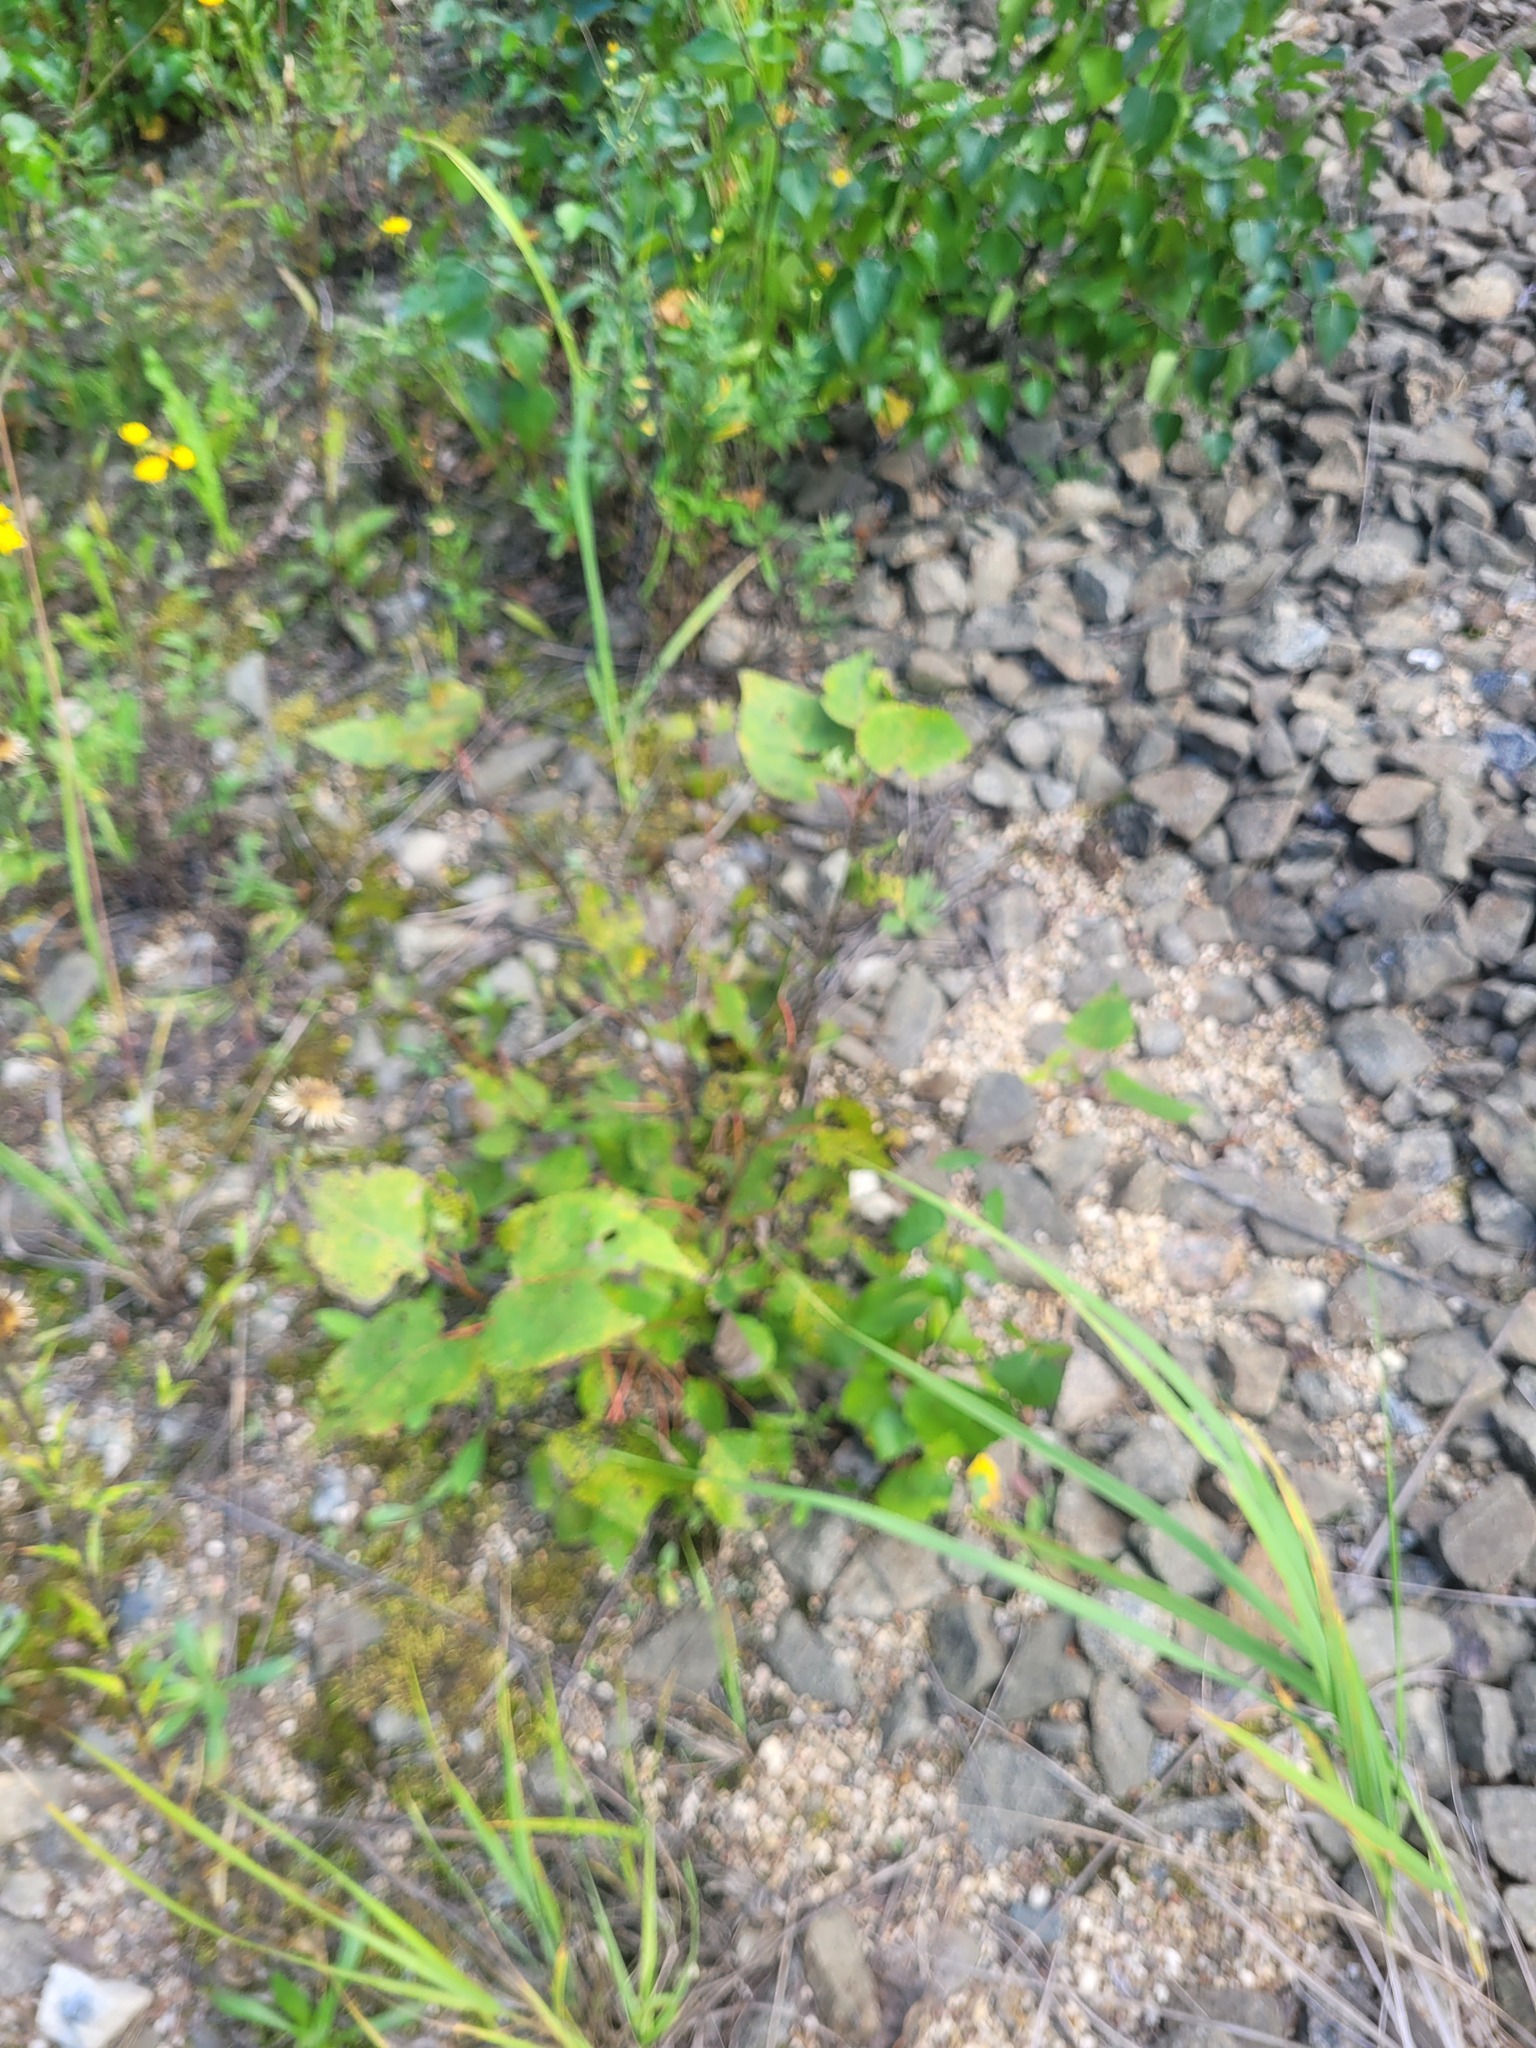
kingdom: Plantae
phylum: Tracheophyta
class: Magnoliopsida
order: Malpighiales
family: Salicaceae
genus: Populus
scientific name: Populus tremula
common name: European aspen
